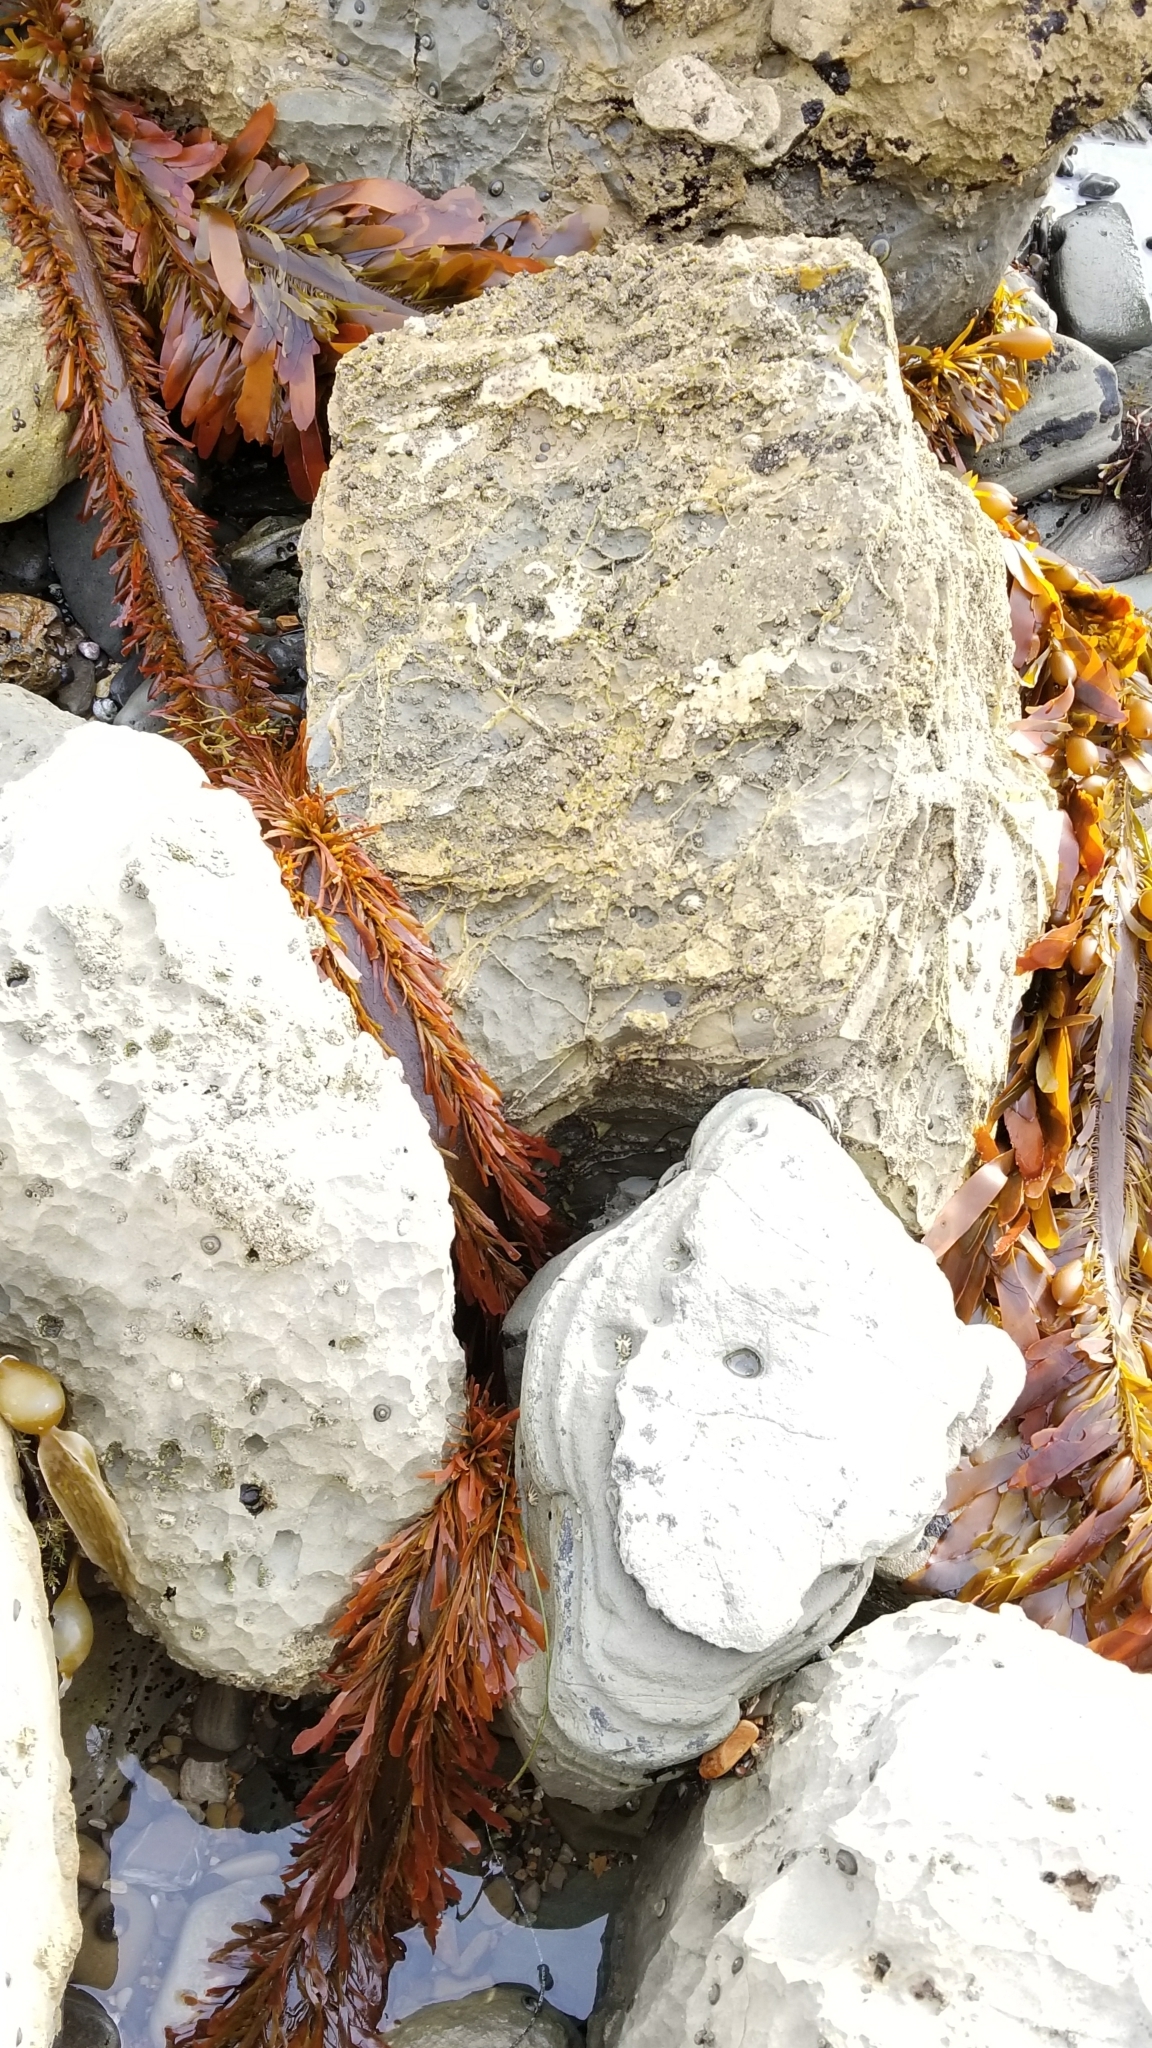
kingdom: Chromista
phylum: Ochrophyta
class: Phaeophyceae
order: Laminariales
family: Lessoniaceae
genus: Egregia
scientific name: Egregia menziesii
